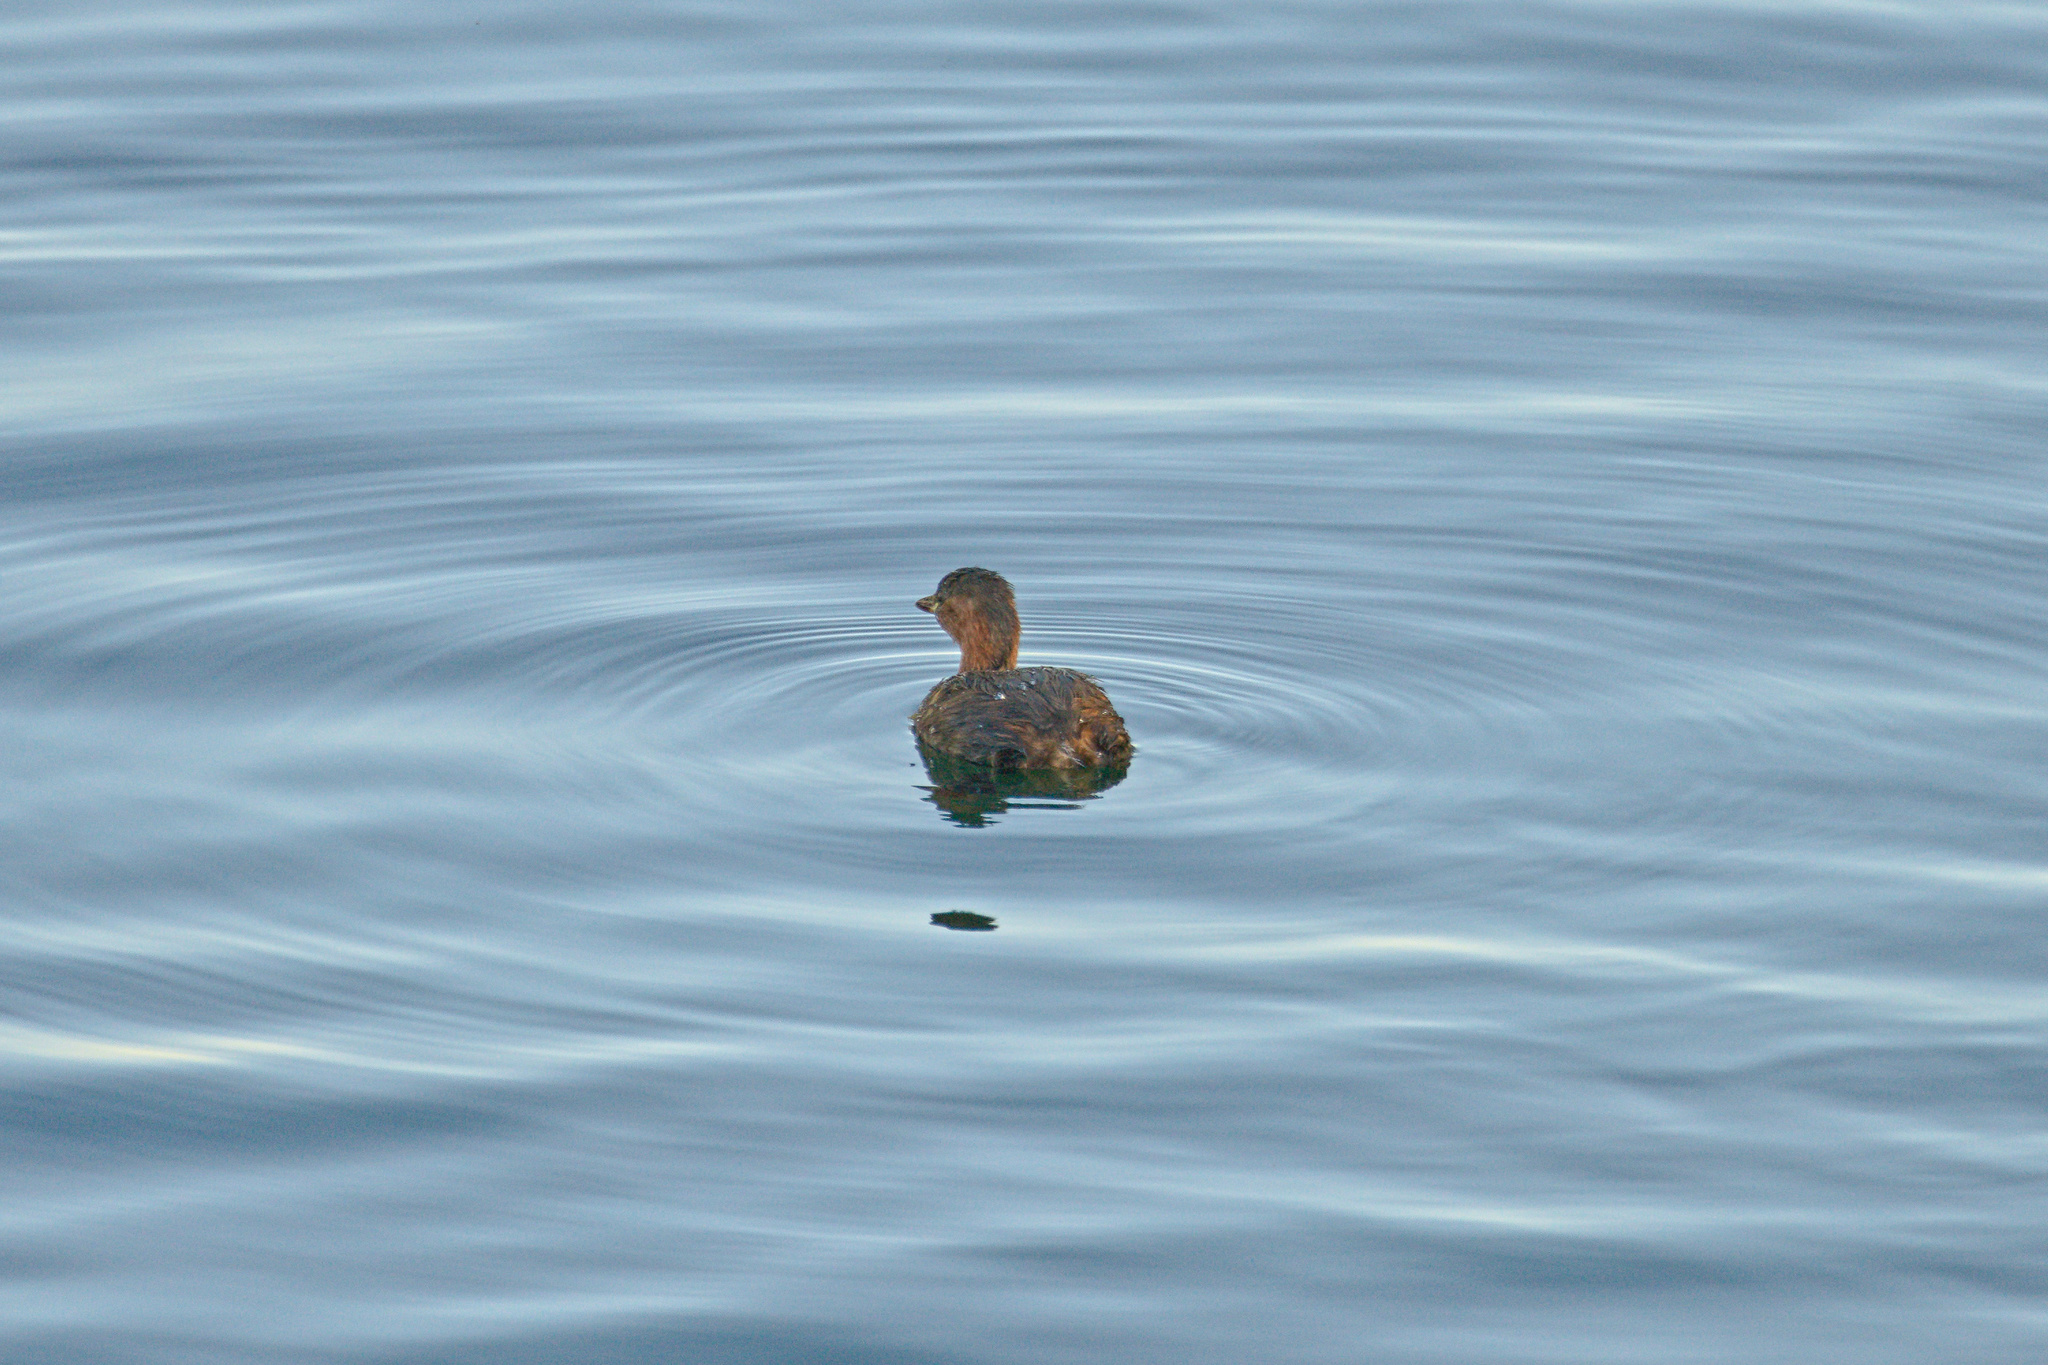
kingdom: Animalia
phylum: Chordata
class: Aves
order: Podicipediformes
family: Podicipedidae
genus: Tachybaptus
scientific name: Tachybaptus ruficollis
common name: Little grebe
